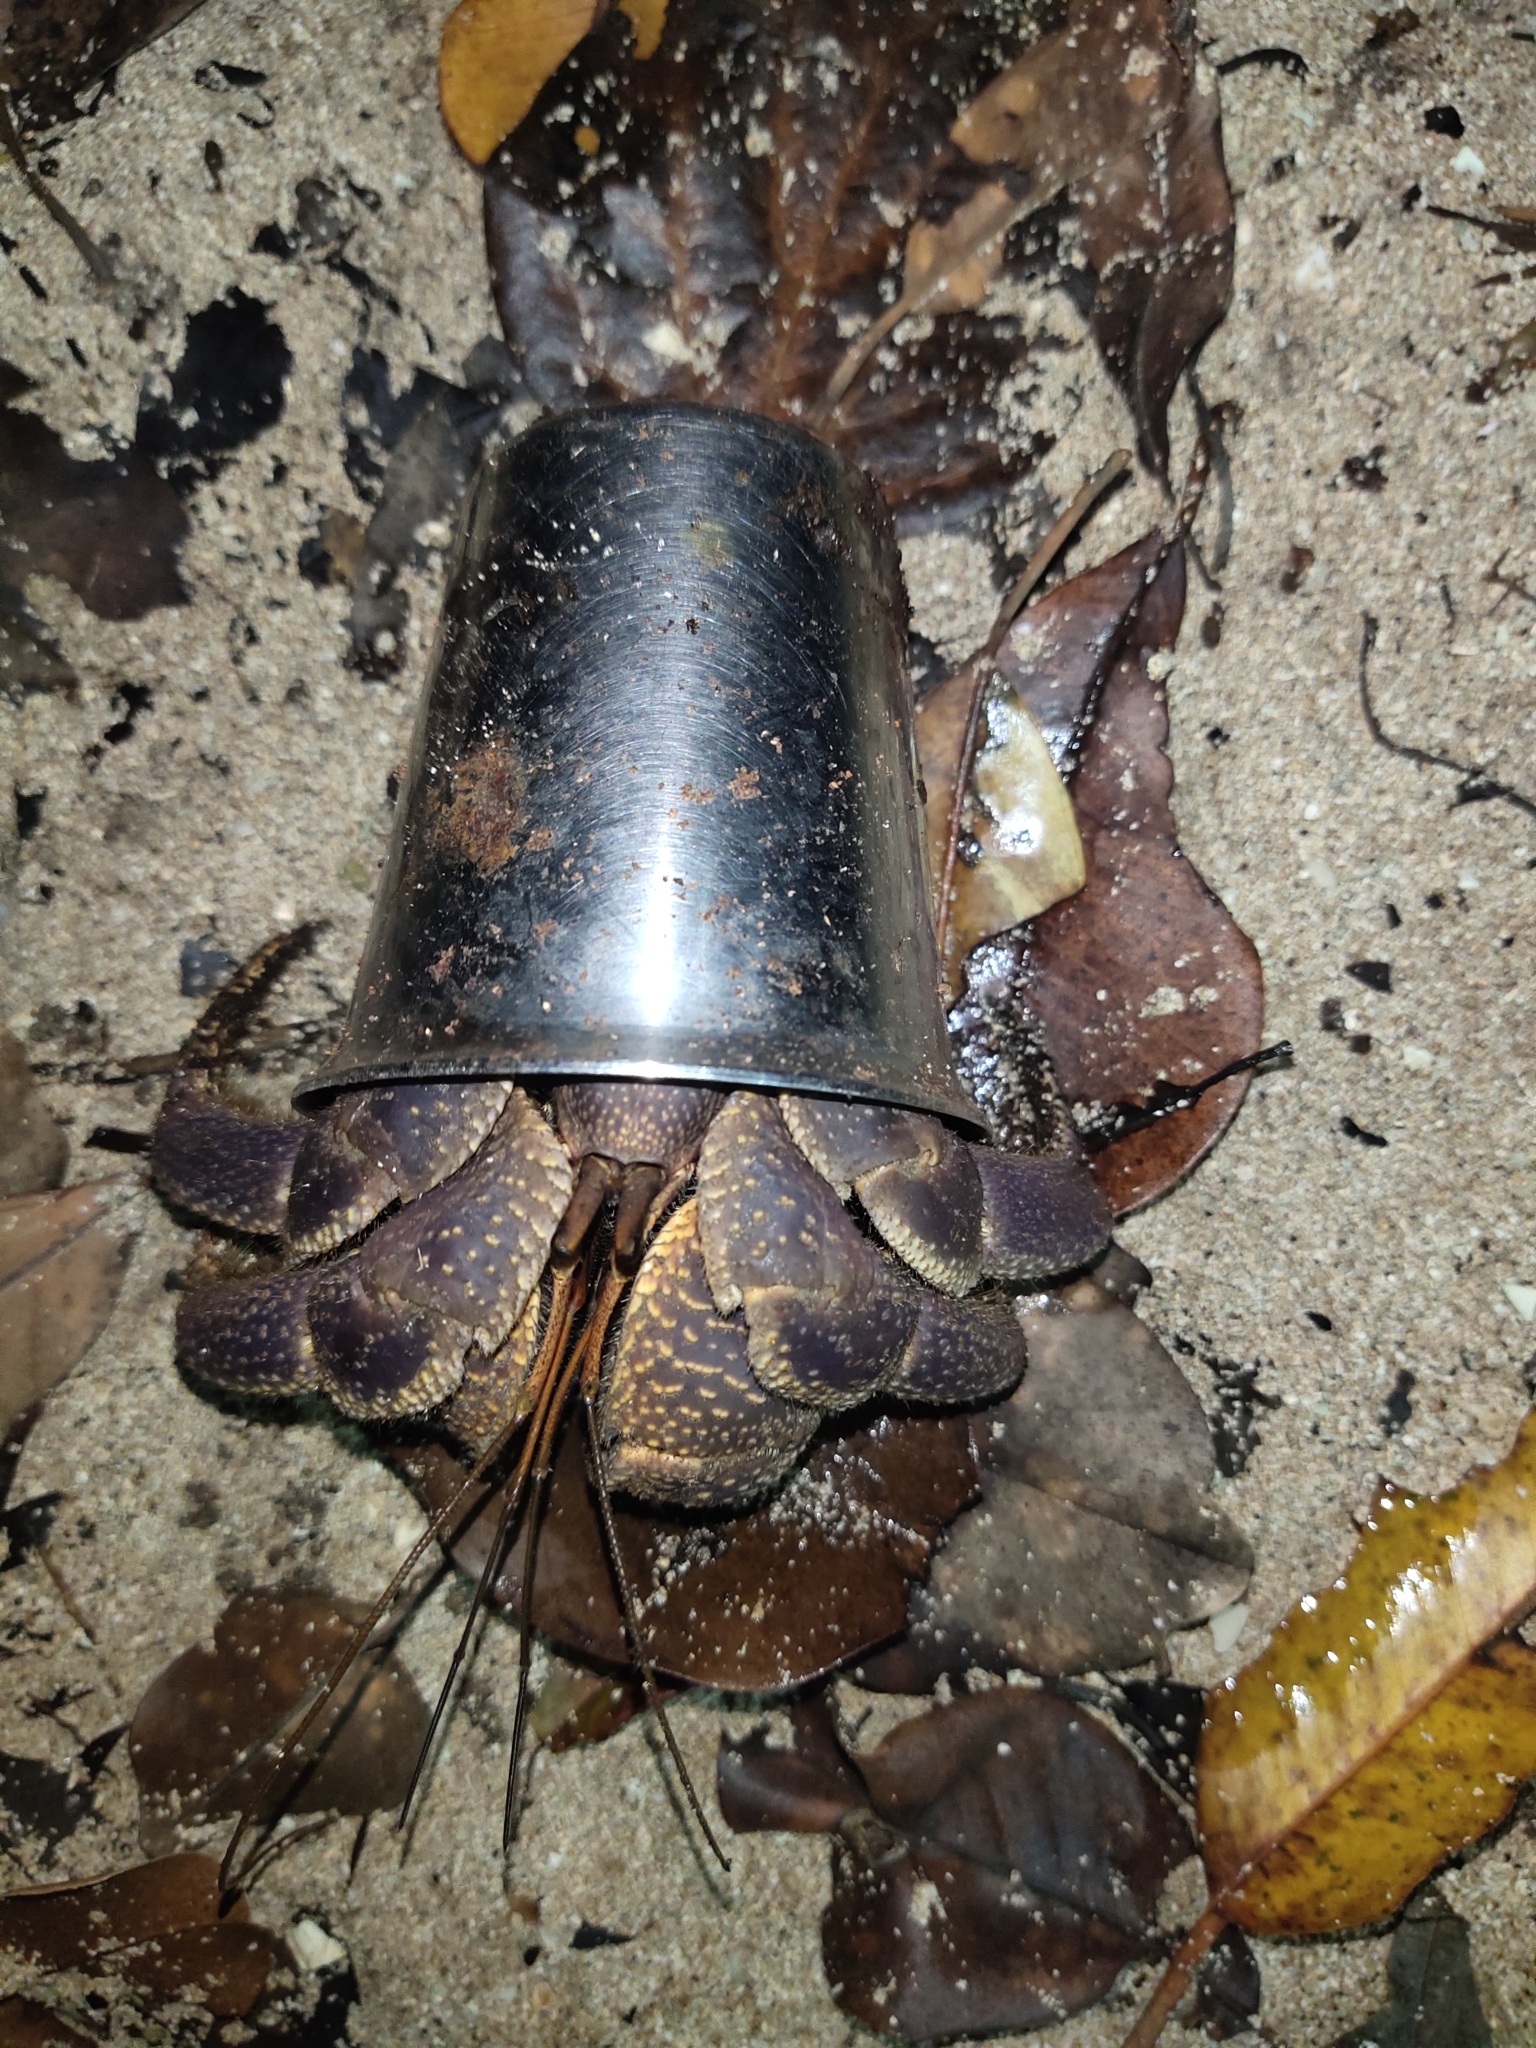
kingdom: Animalia
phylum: Arthropoda
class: Malacostraca
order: Decapoda
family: Coenobitidae
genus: Coenobita
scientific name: Coenobita brevimanus
